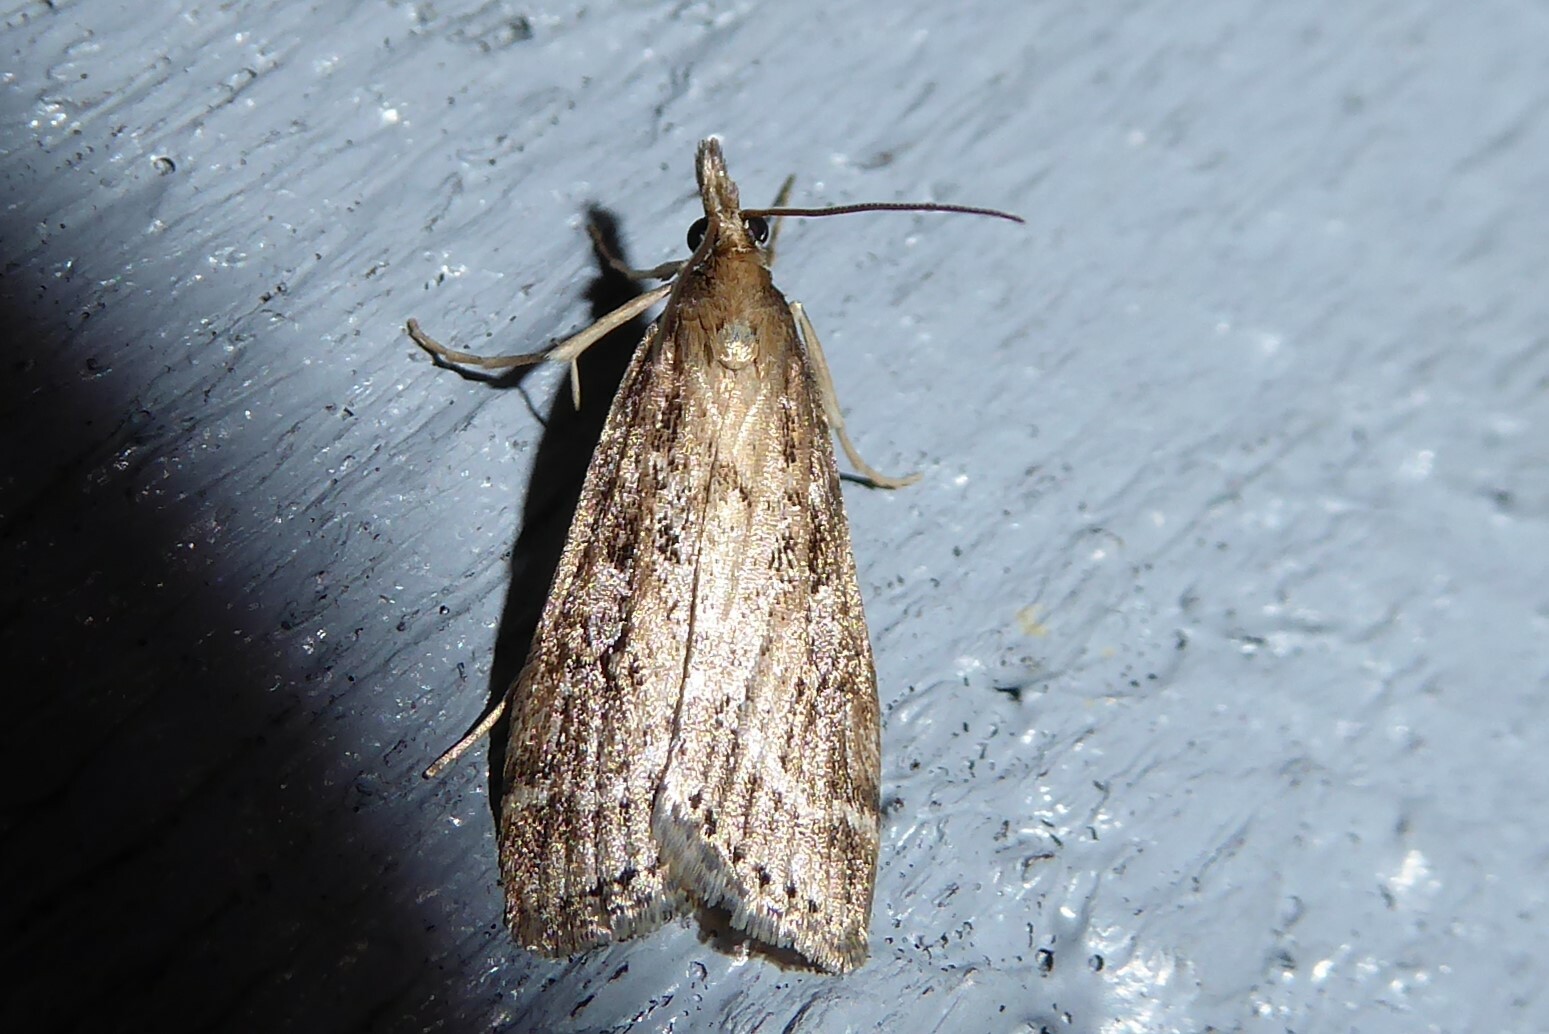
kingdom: Animalia
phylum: Arthropoda
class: Insecta
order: Lepidoptera
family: Crambidae
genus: Eudonia
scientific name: Eudonia octophora
